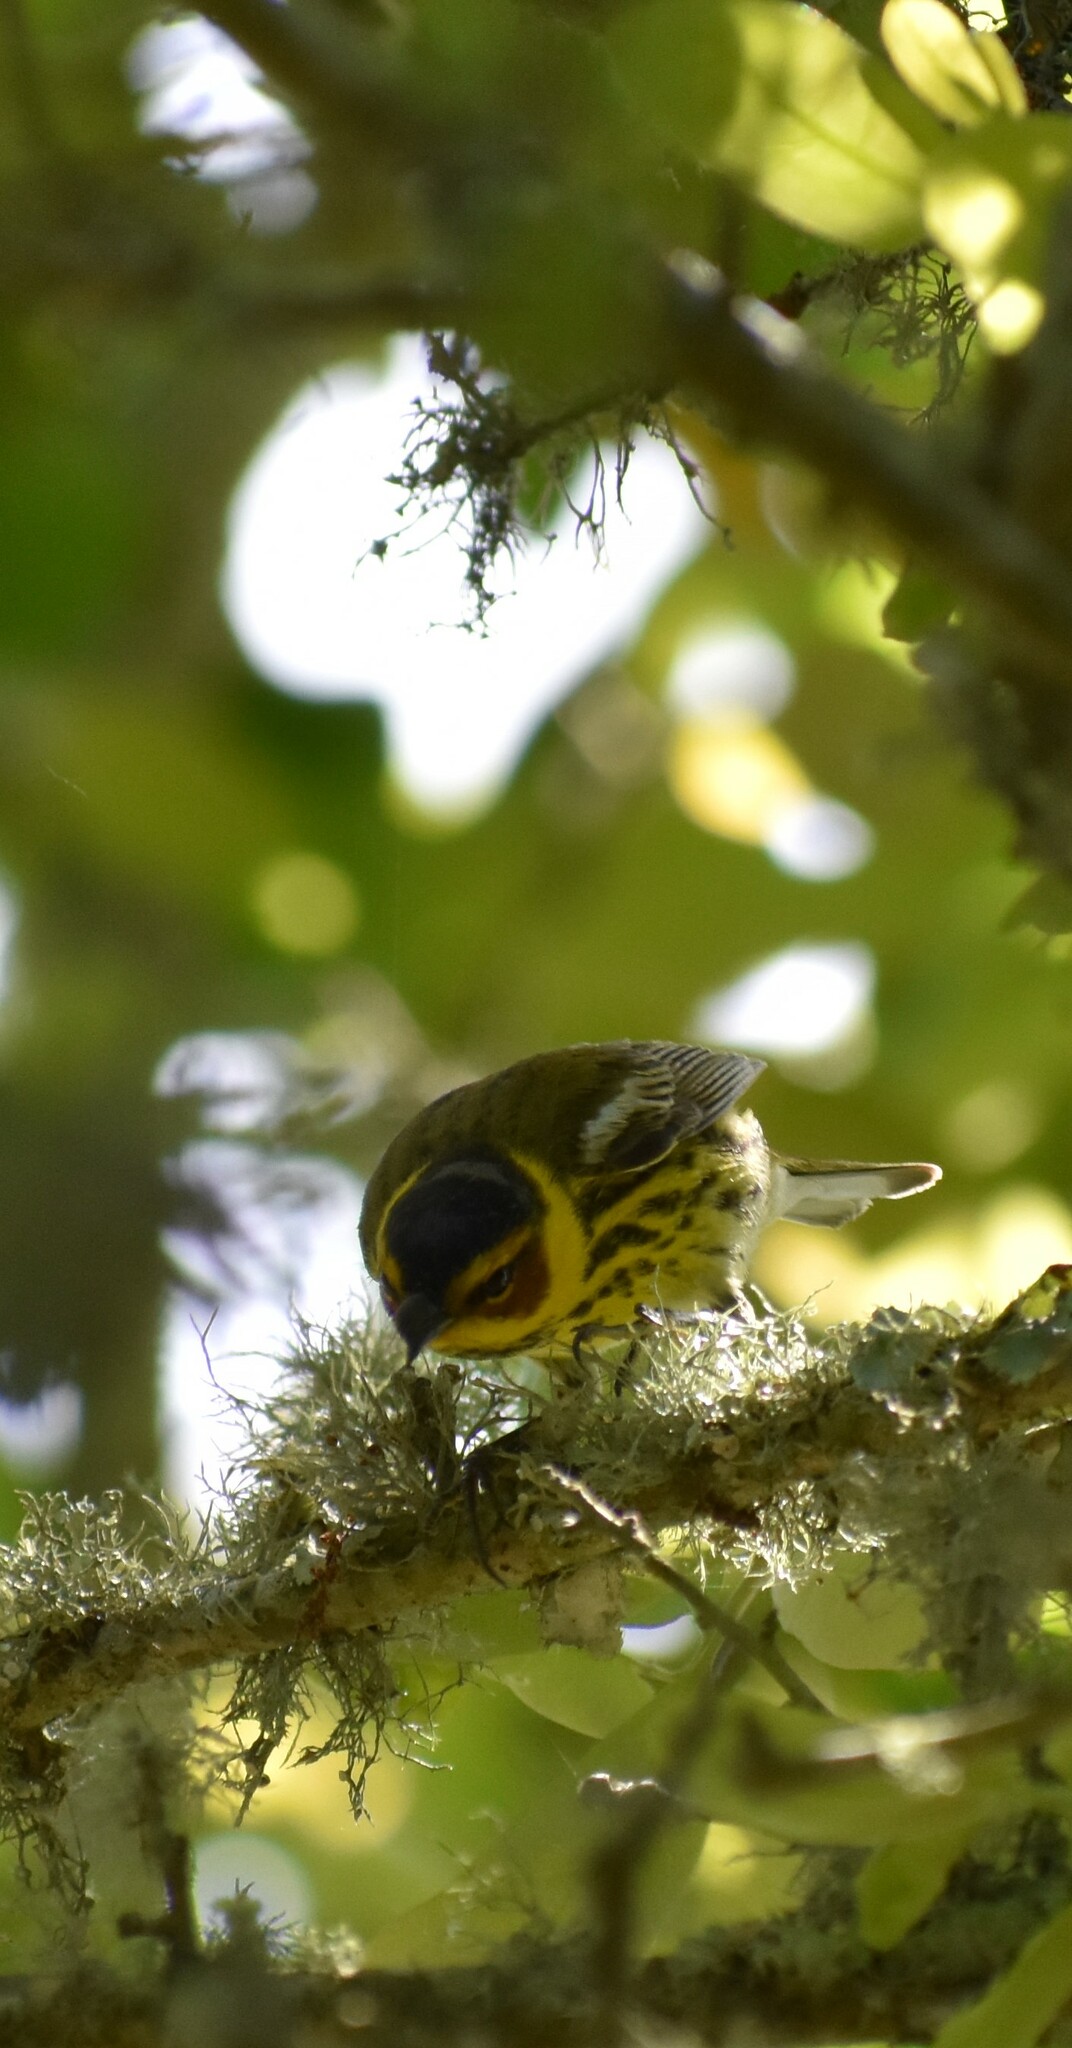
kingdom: Animalia
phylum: Chordata
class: Aves
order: Passeriformes
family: Parulidae
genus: Setophaga
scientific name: Setophaga tigrina
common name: Cape may warbler
